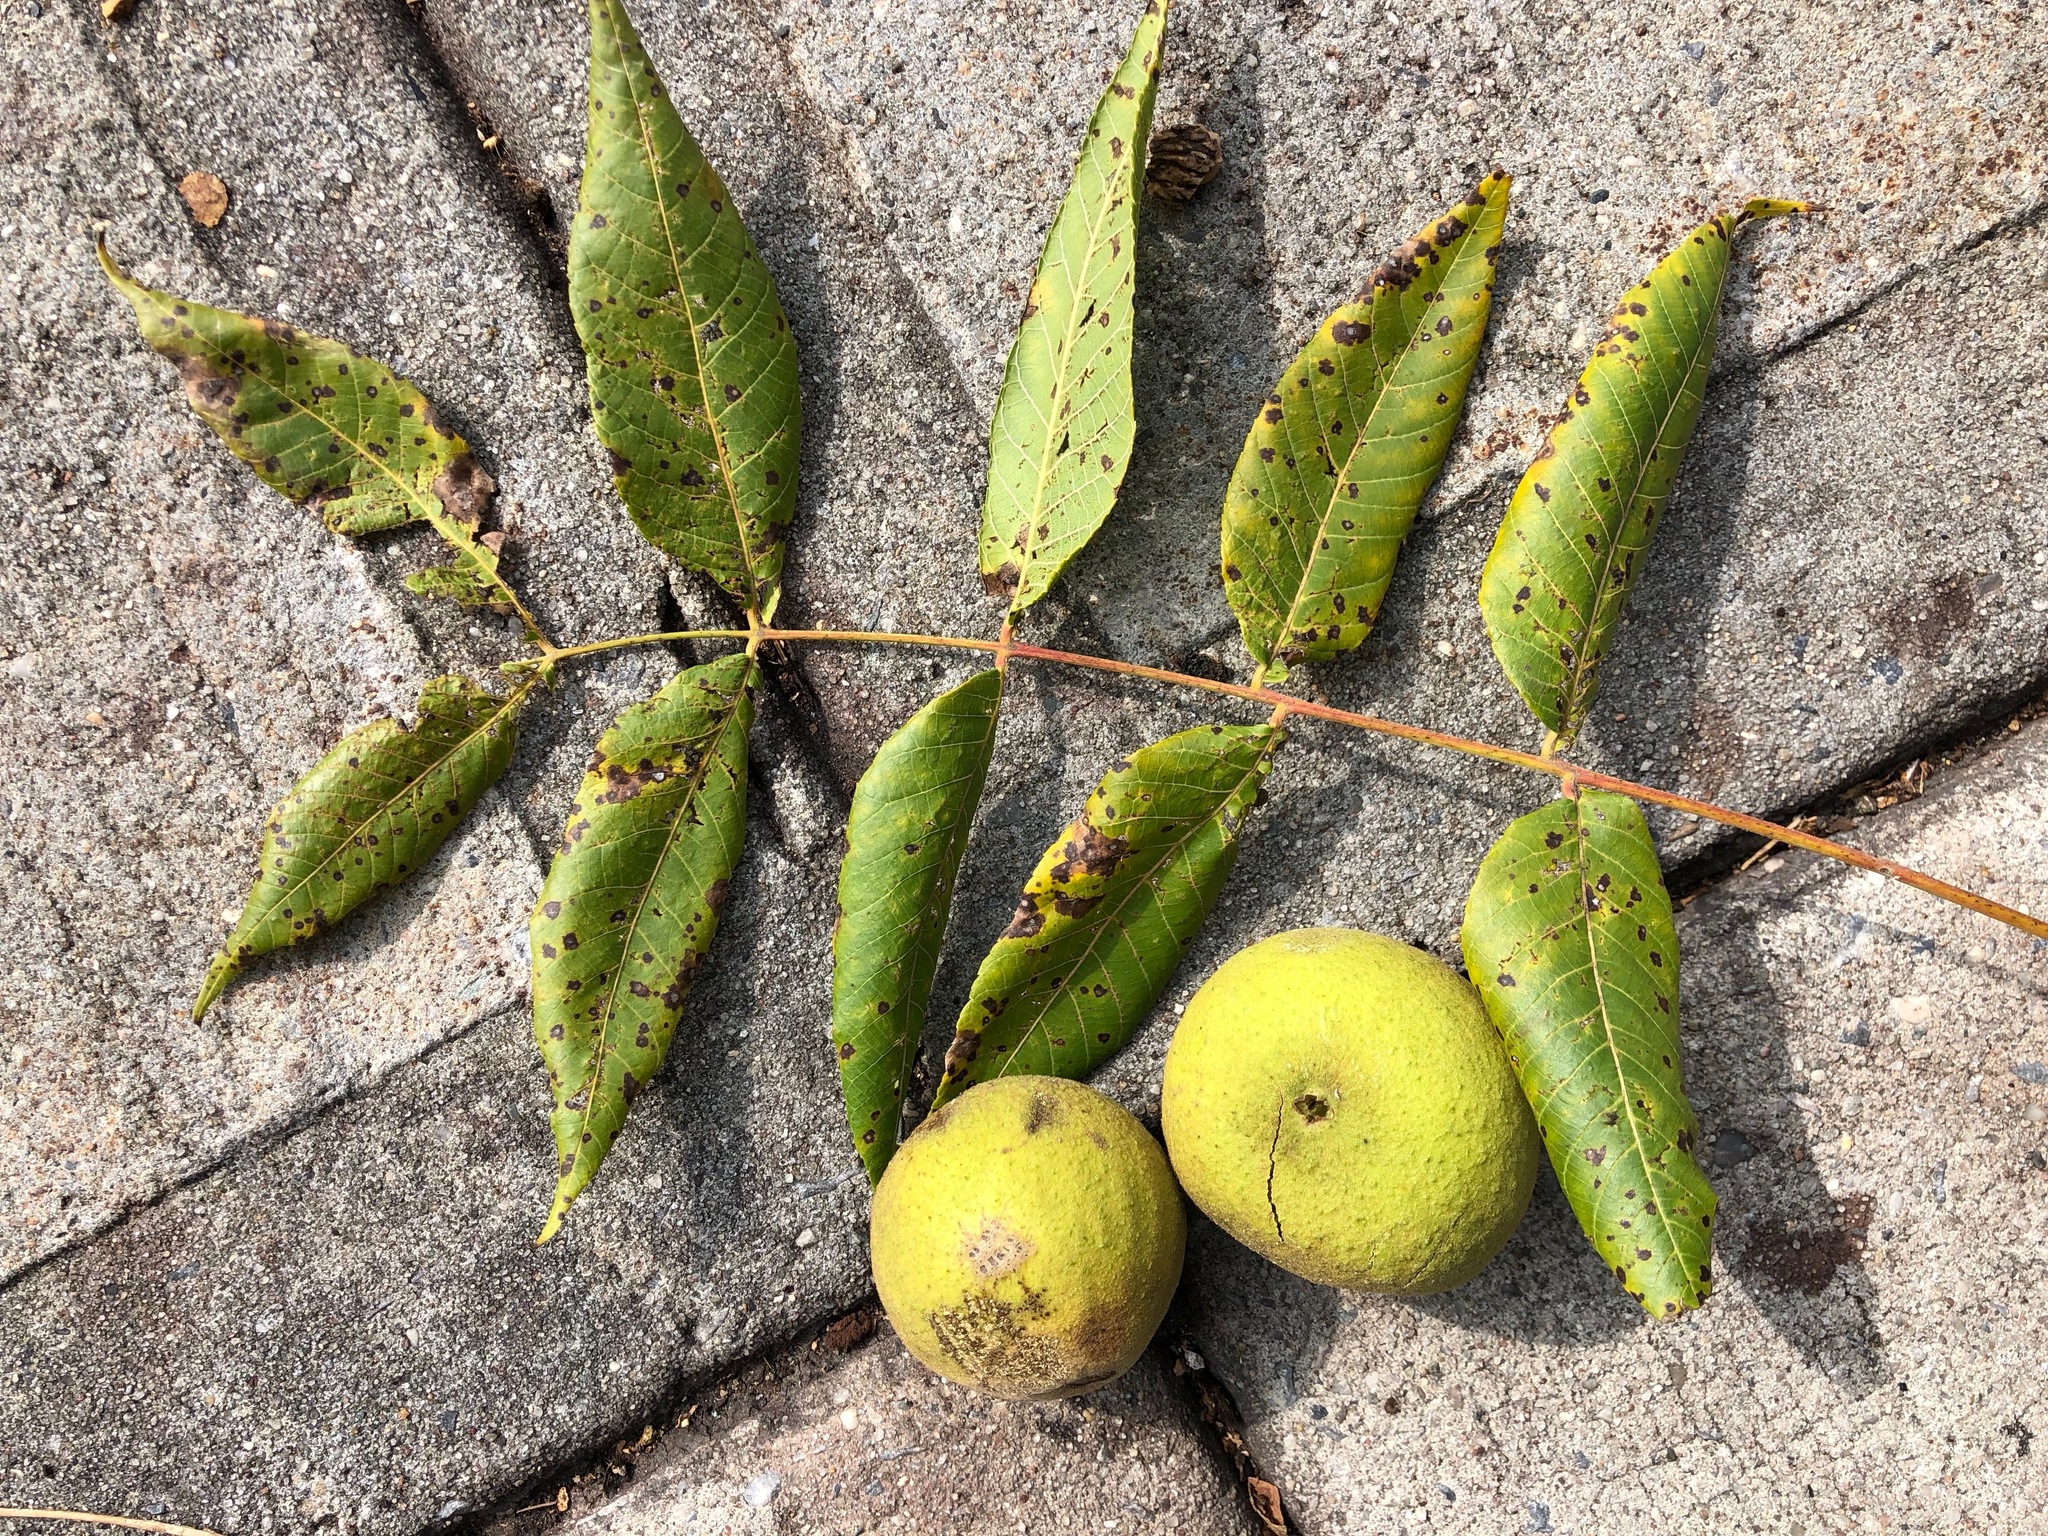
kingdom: Plantae
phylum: Tracheophyta
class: Magnoliopsida
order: Fagales
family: Juglandaceae
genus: Juglans
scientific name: Juglans nigra
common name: Black walnut
